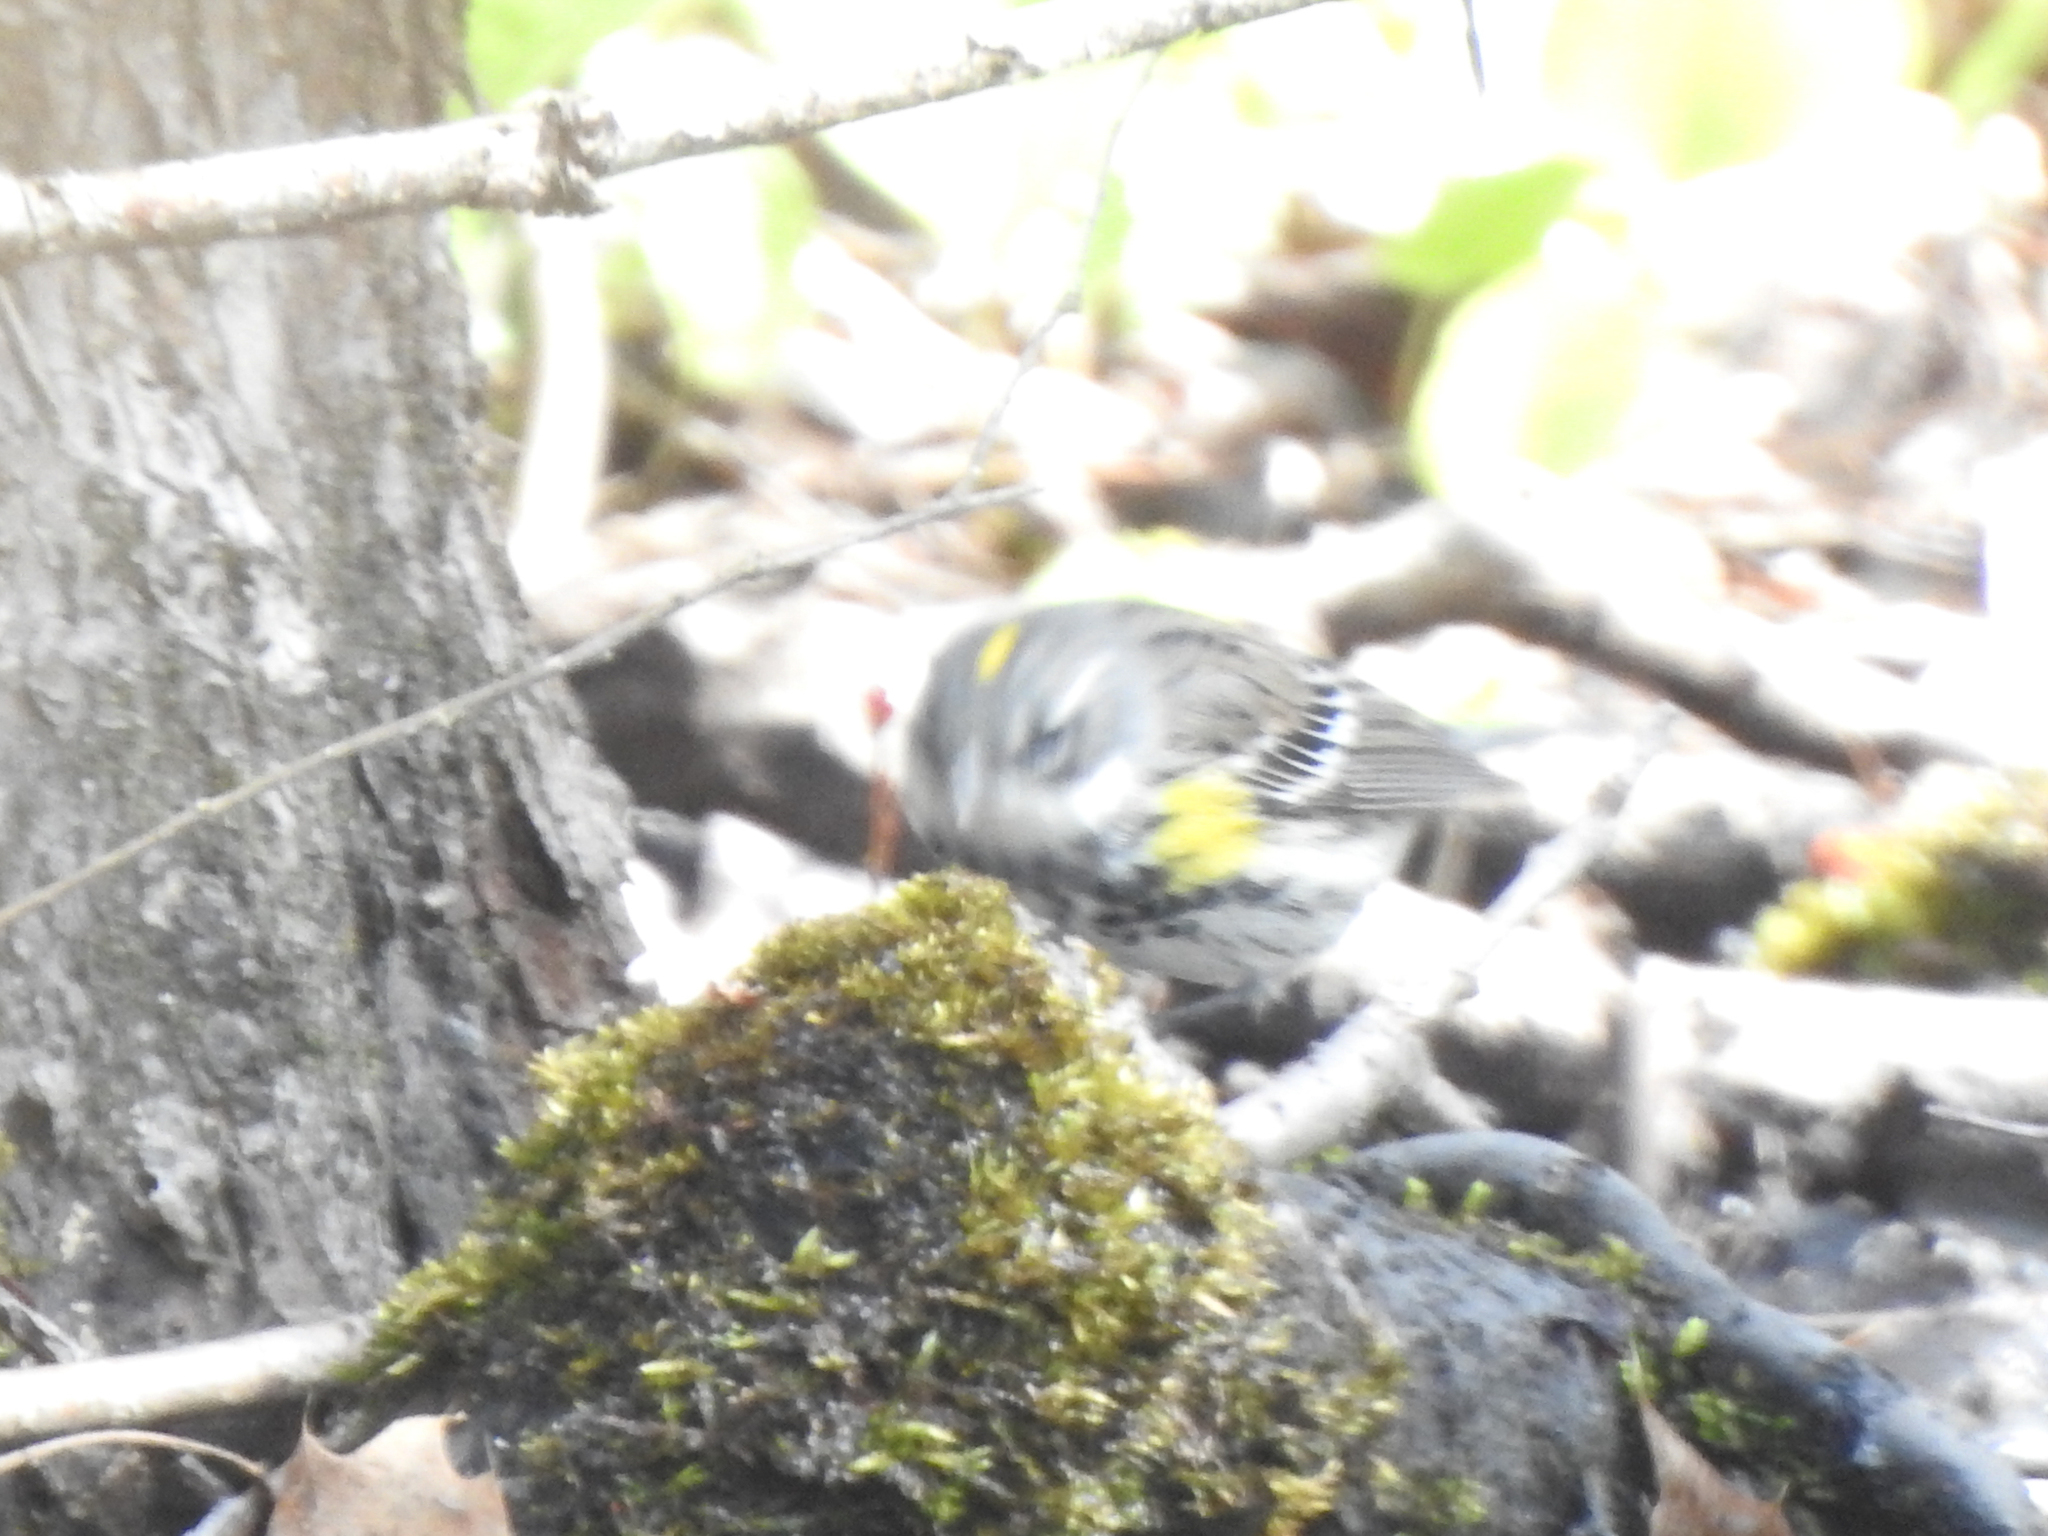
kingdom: Animalia
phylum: Chordata
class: Aves
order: Passeriformes
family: Parulidae
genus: Setophaga
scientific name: Setophaga coronata
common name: Myrtle warbler
